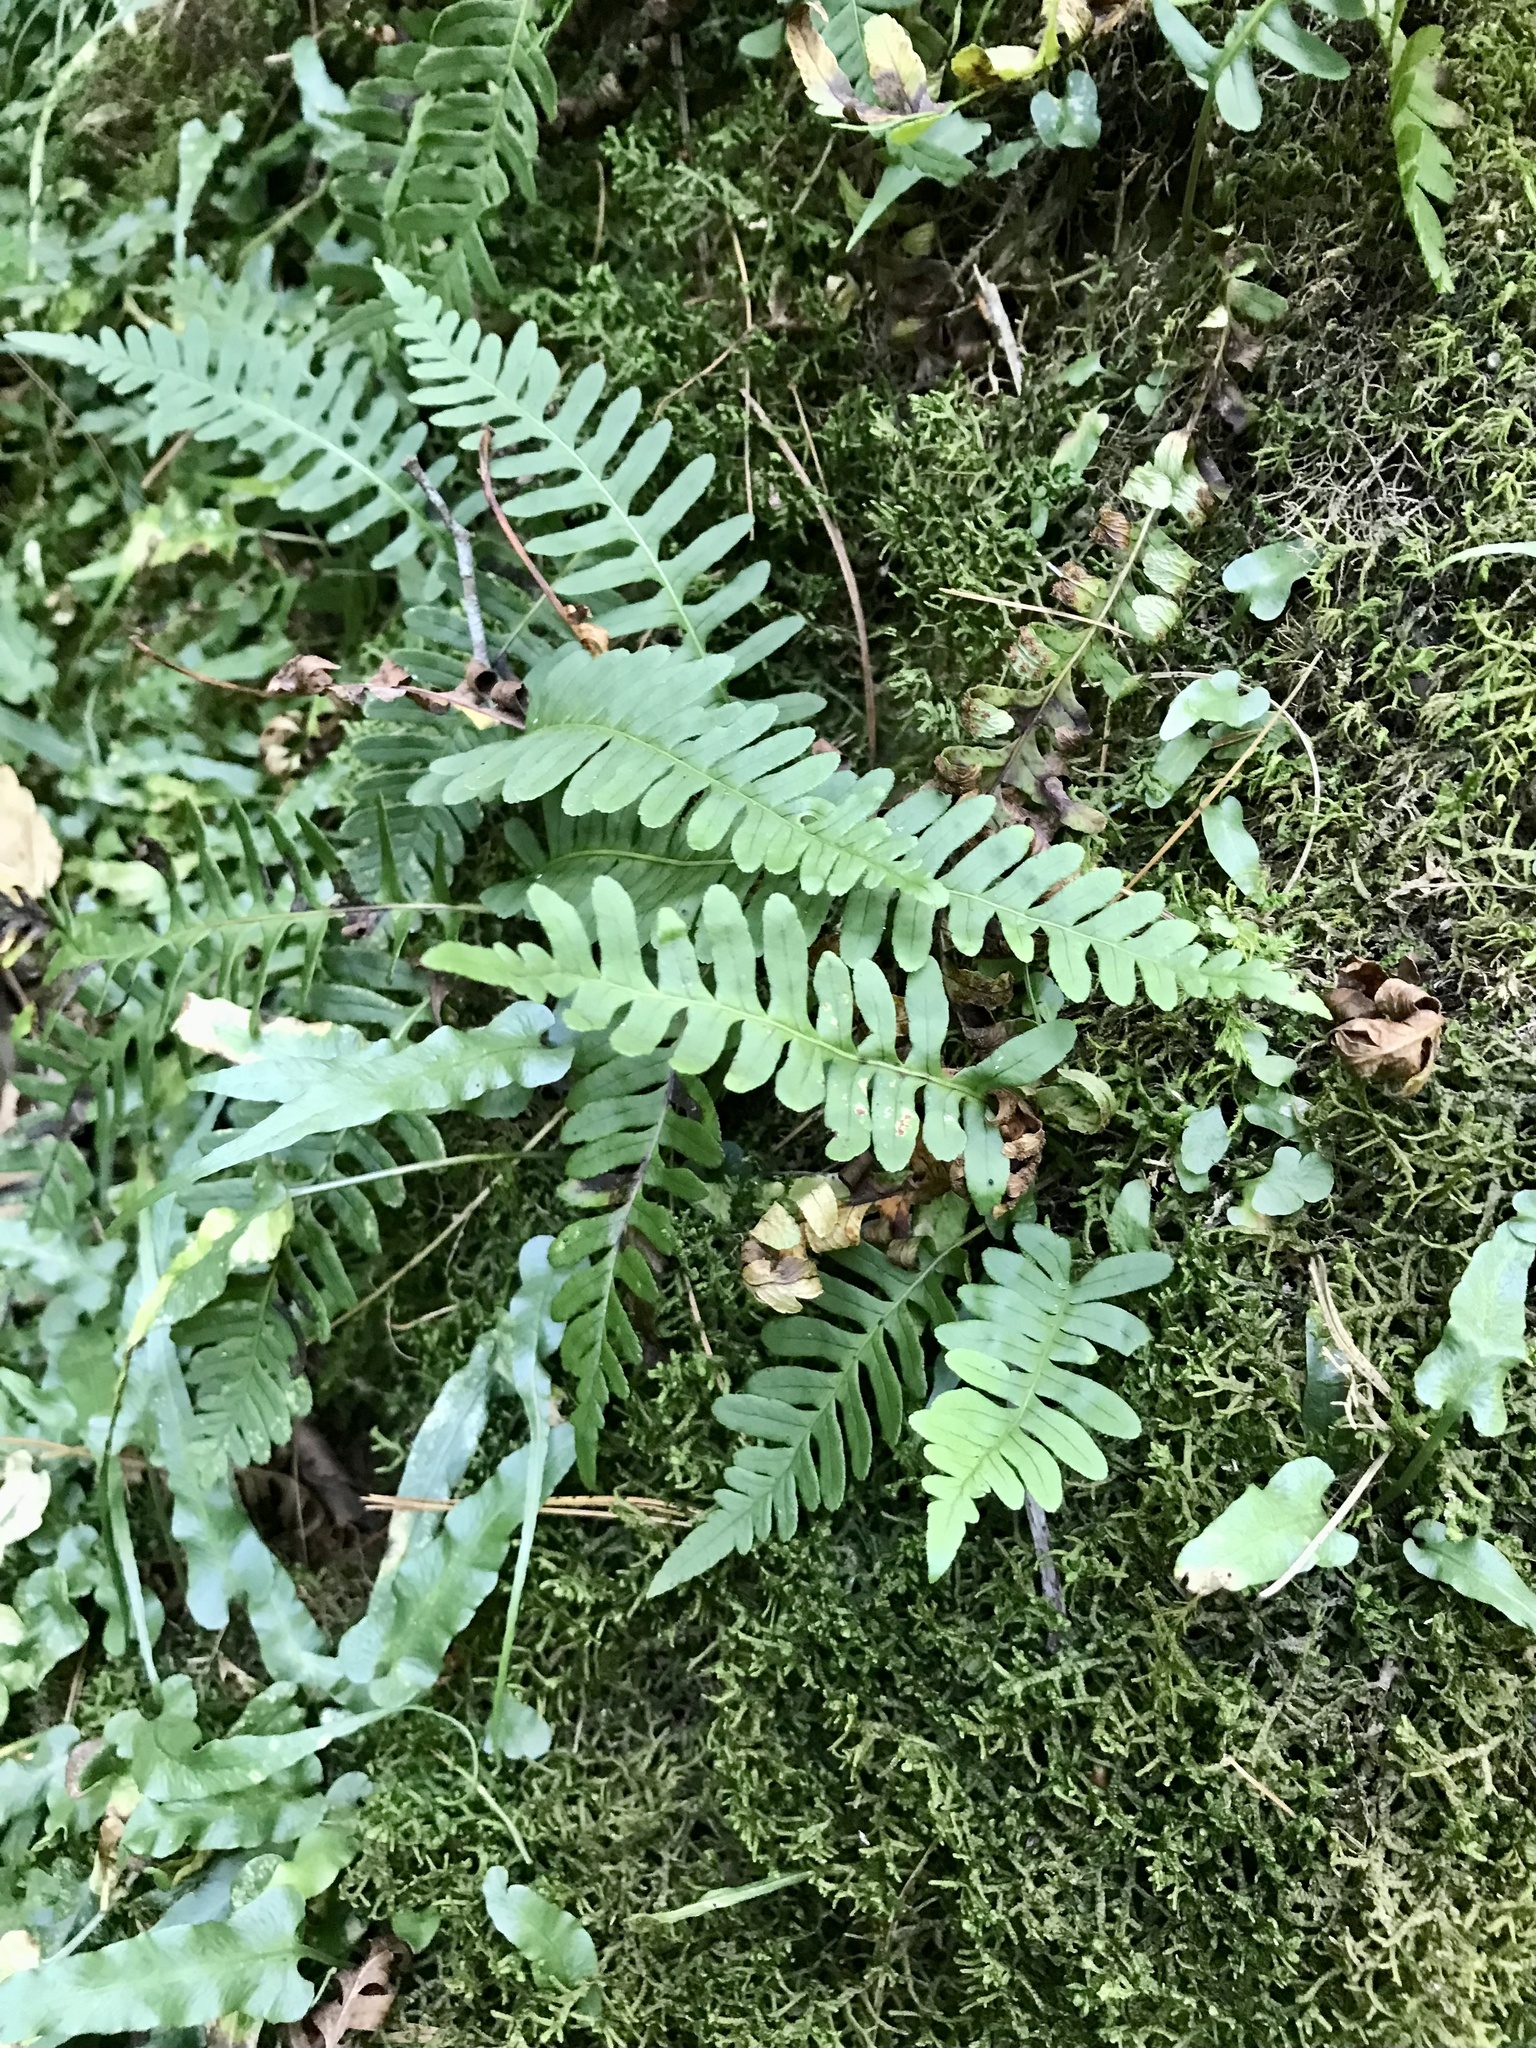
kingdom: Plantae
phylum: Tracheophyta
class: Polypodiopsida
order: Polypodiales
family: Polypodiaceae
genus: Polypodium
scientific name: Polypodium virginianum
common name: American wall fern
